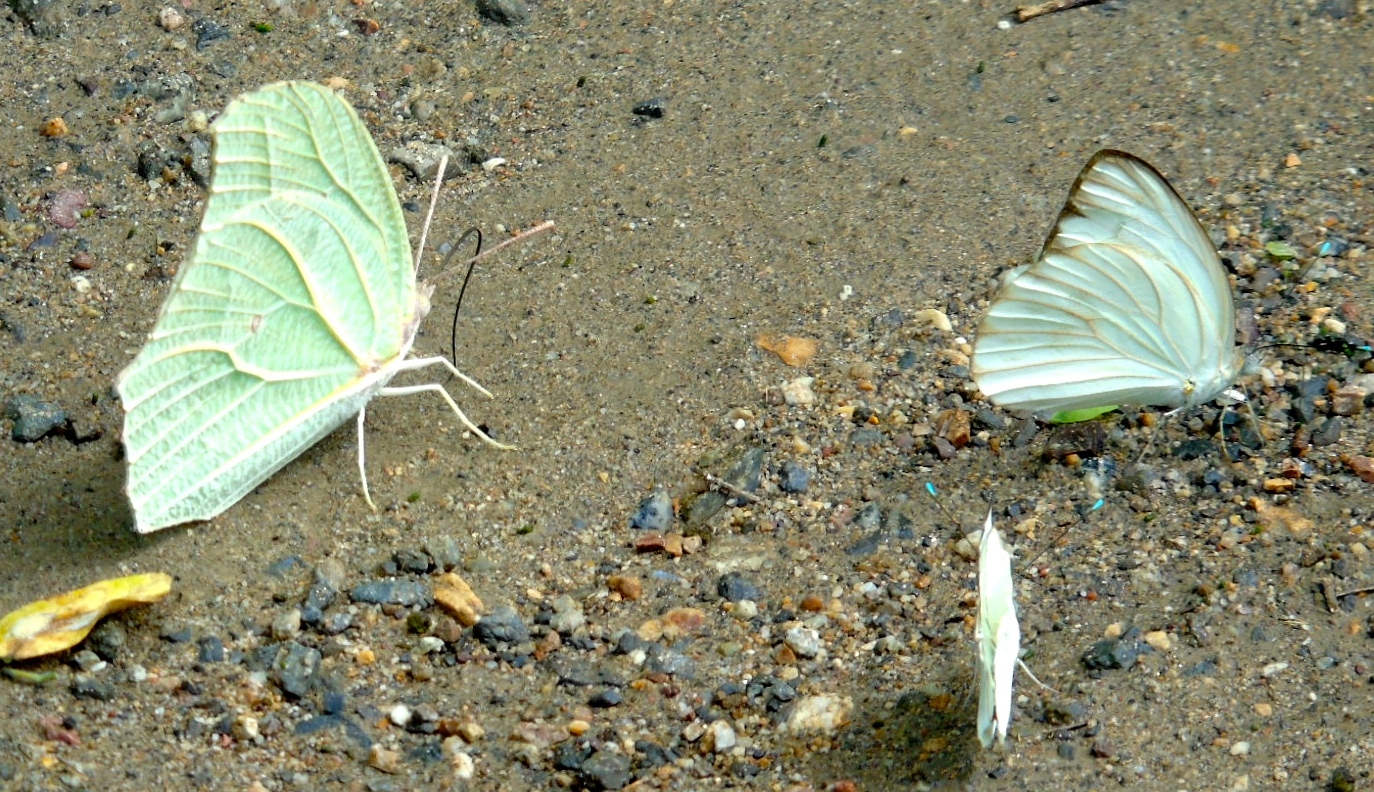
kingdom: Animalia
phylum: Arthropoda
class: Insecta
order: Lepidoptera
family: Pieridae
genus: Ascia
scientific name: Ascia monuste
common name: Great southern white
